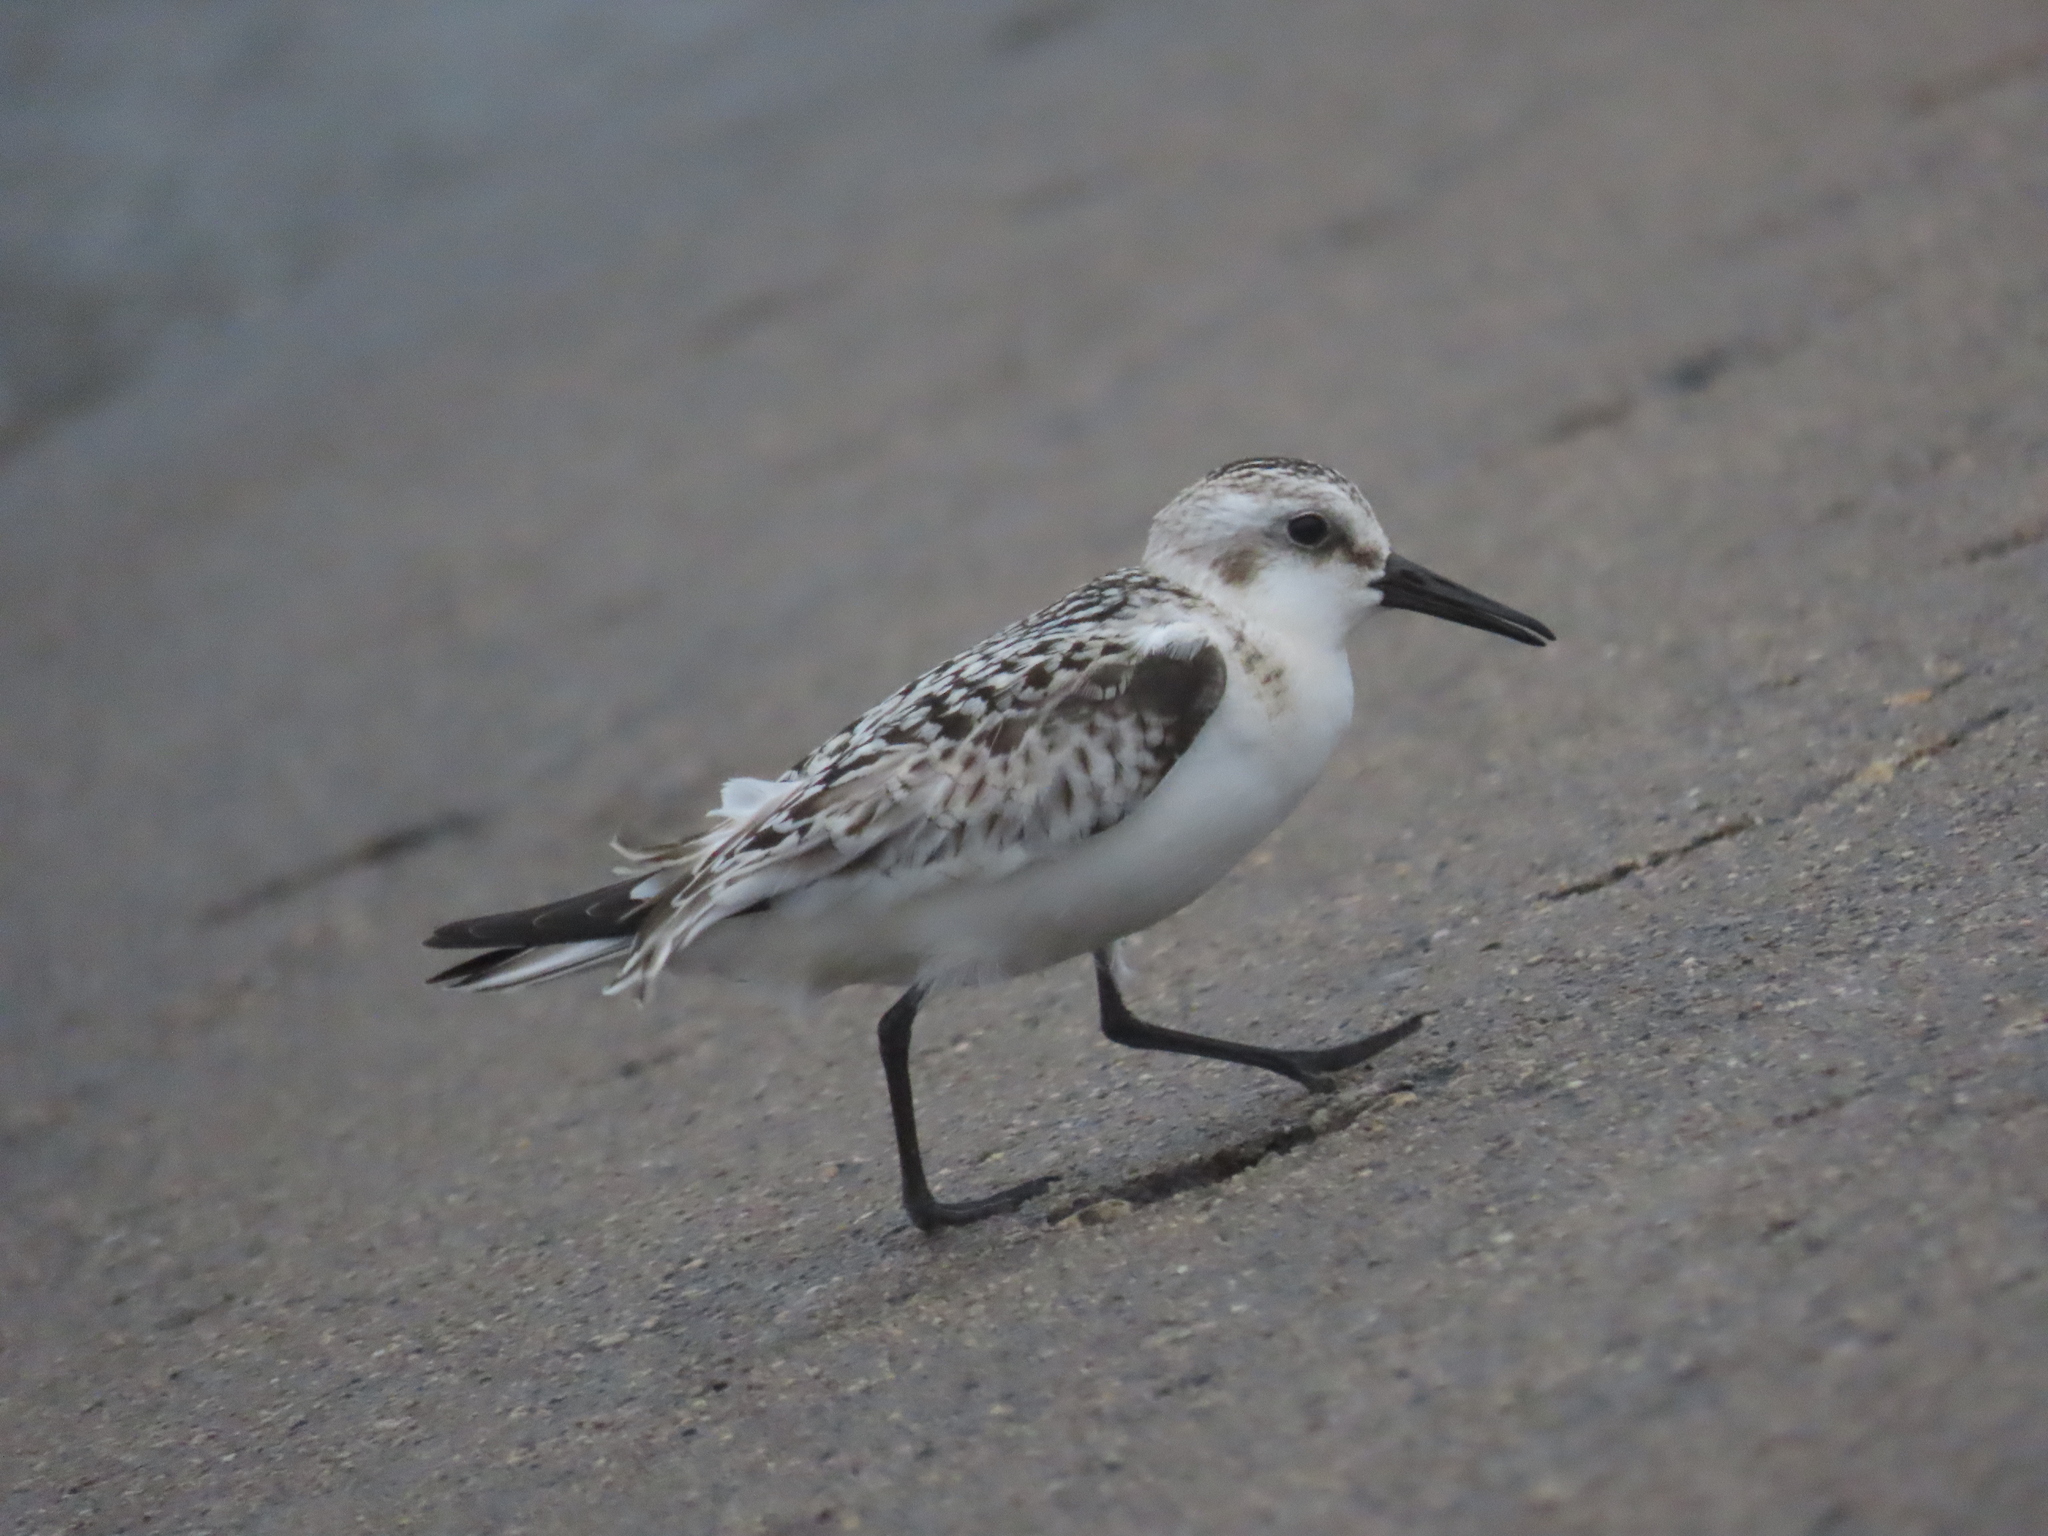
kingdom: Animalia
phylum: Chordata
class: Aves
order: Charadriiformes
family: Scolopacidae
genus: Calidris
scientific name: Calidris alba
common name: Sanderling
